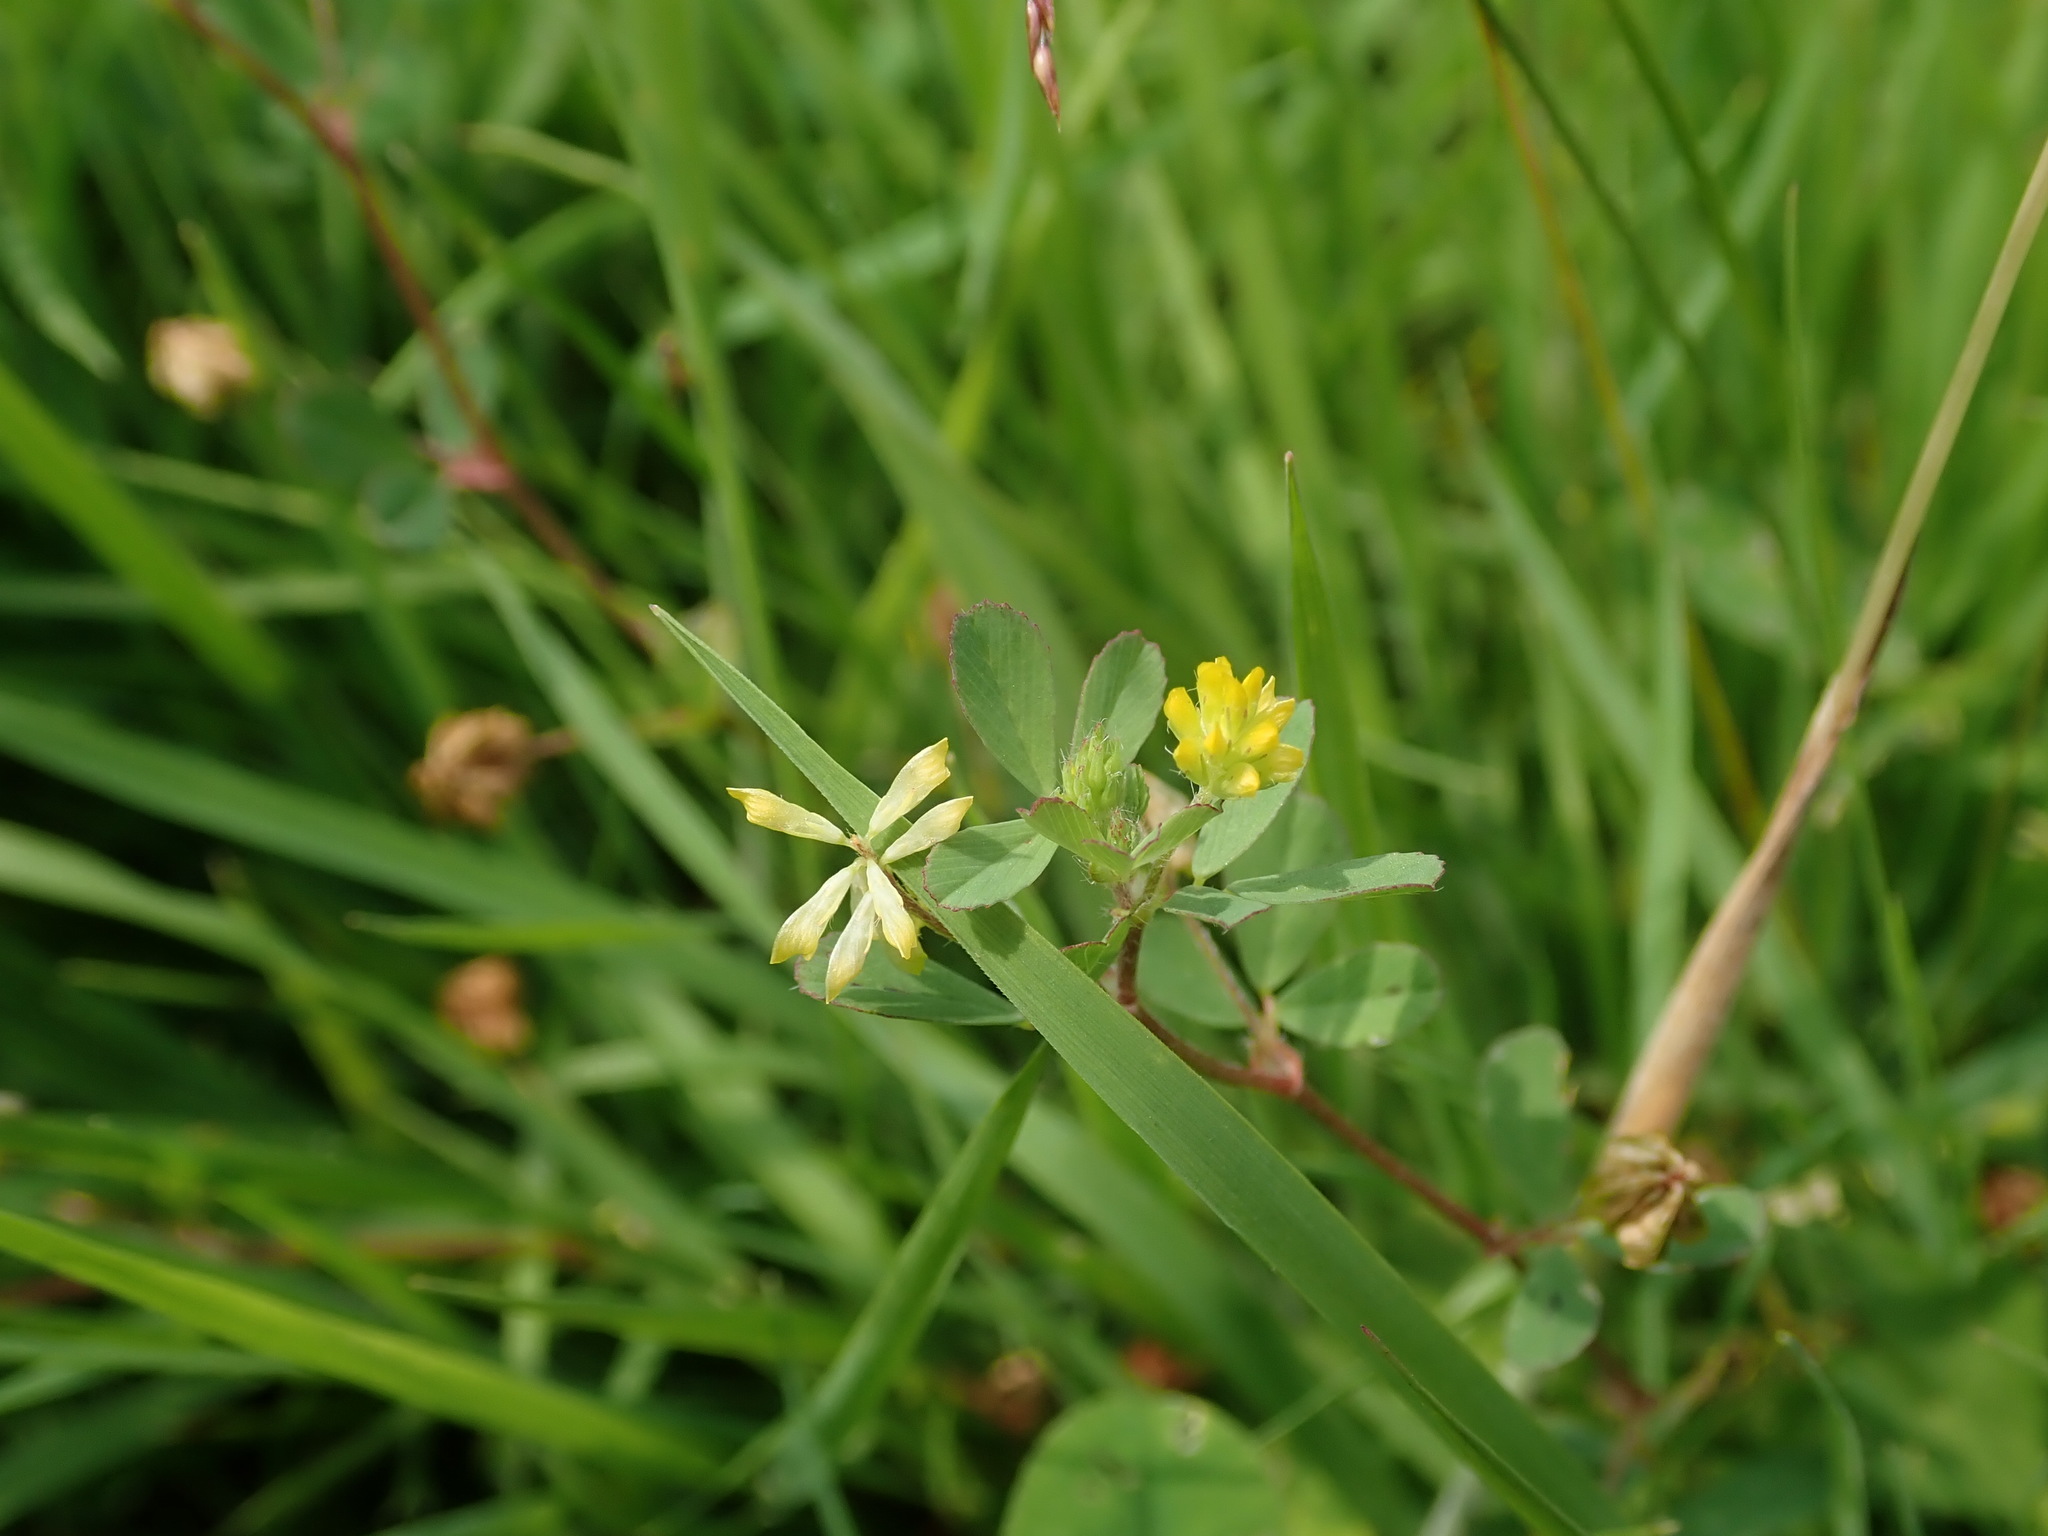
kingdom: Plantae
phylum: Tracheophyta
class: Magnoliopsida
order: Fabales
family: Fabaceae
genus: Trifolium
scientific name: Trifolium dubium
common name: Suckling clover
